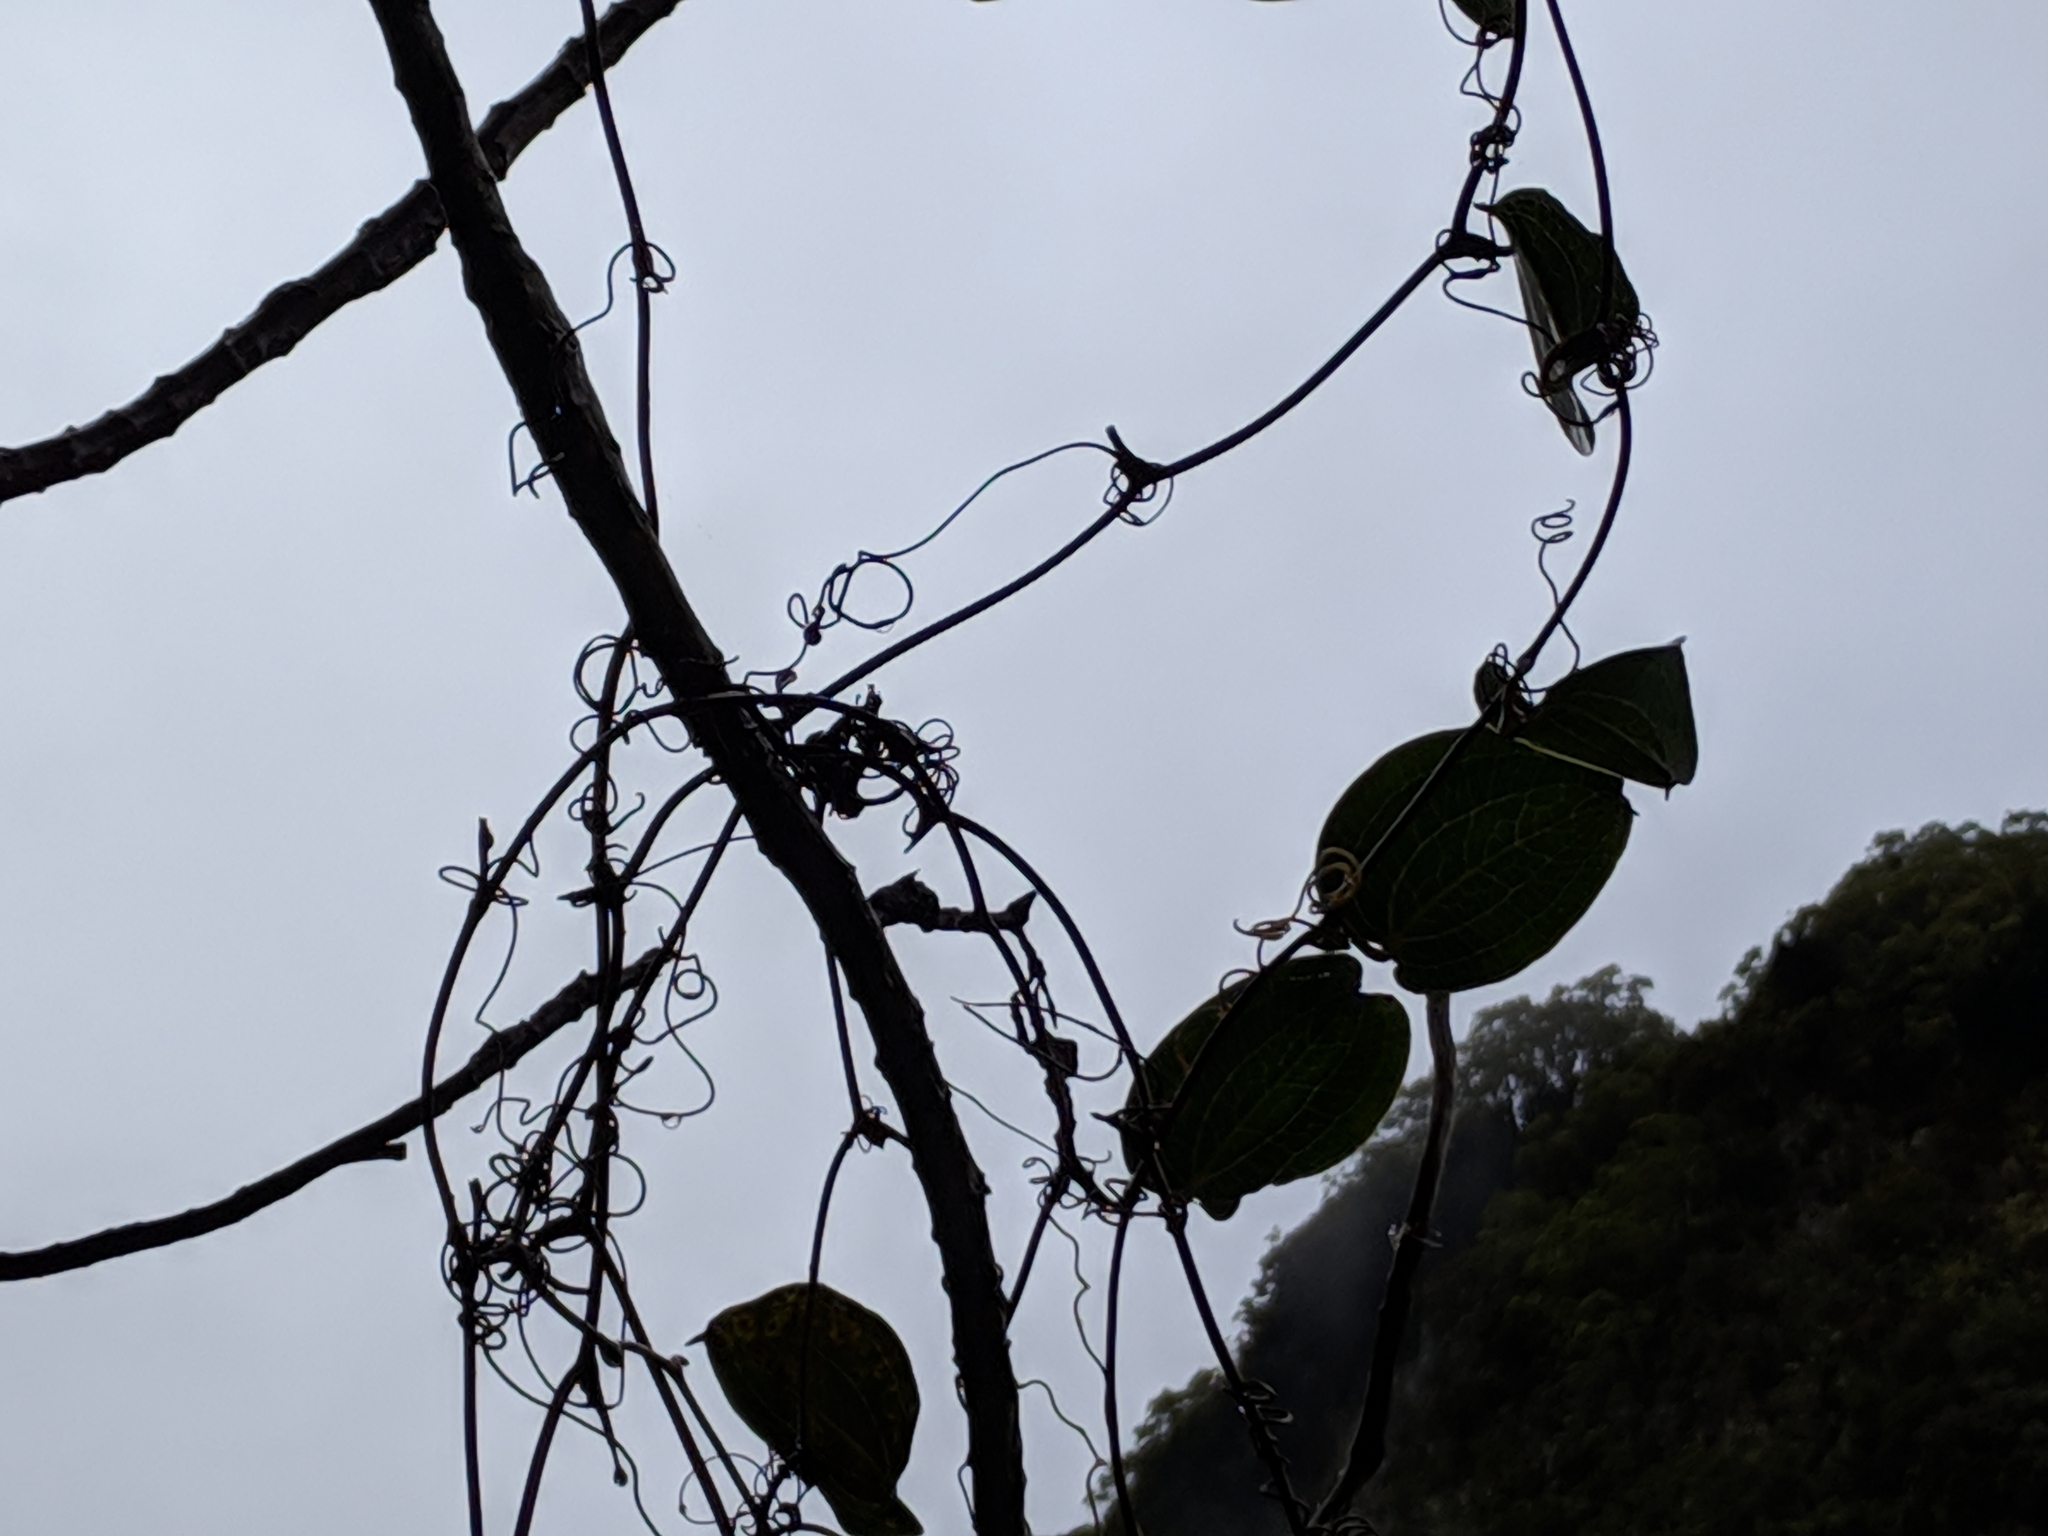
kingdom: Plantae
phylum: Tracheophyta
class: Liliopsida
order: Liliales
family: Smilacaceae
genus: Smilax
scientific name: Smilax anceps
